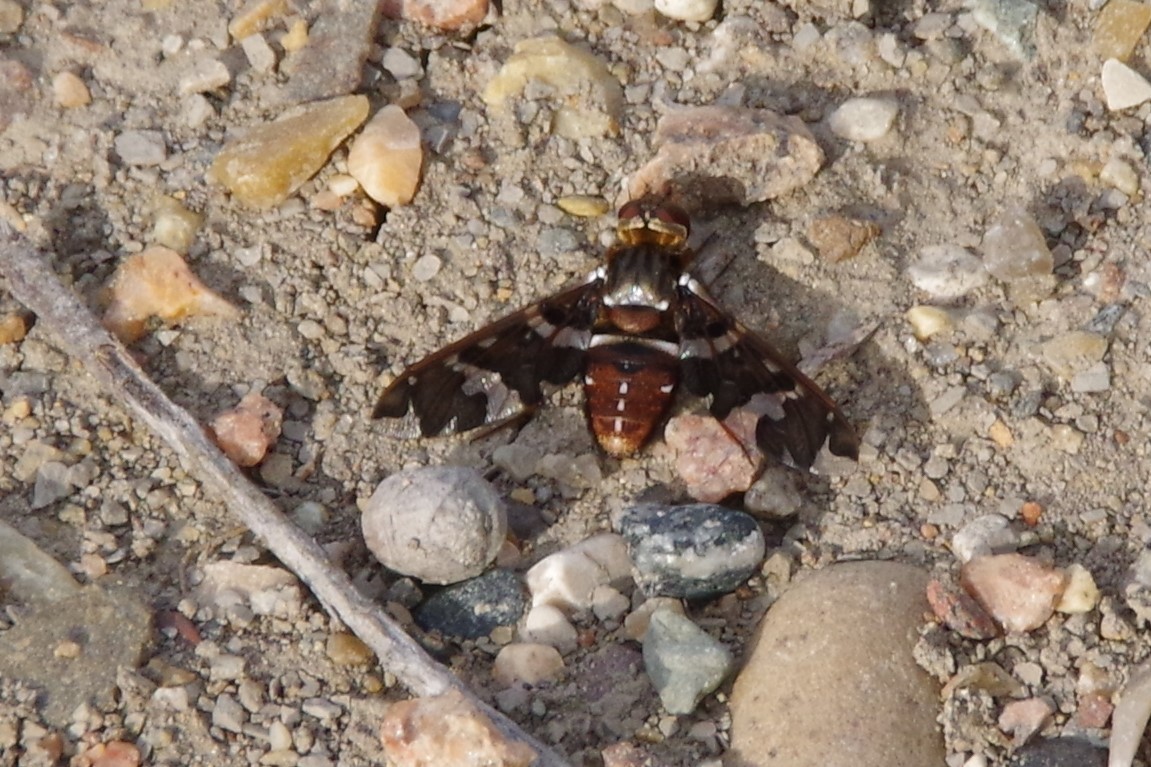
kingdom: Animalia
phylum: Arthropoda
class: Insecta
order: Diptera
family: Bombyliidae
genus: Exoprosopa
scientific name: Exoprosopa caliptera
